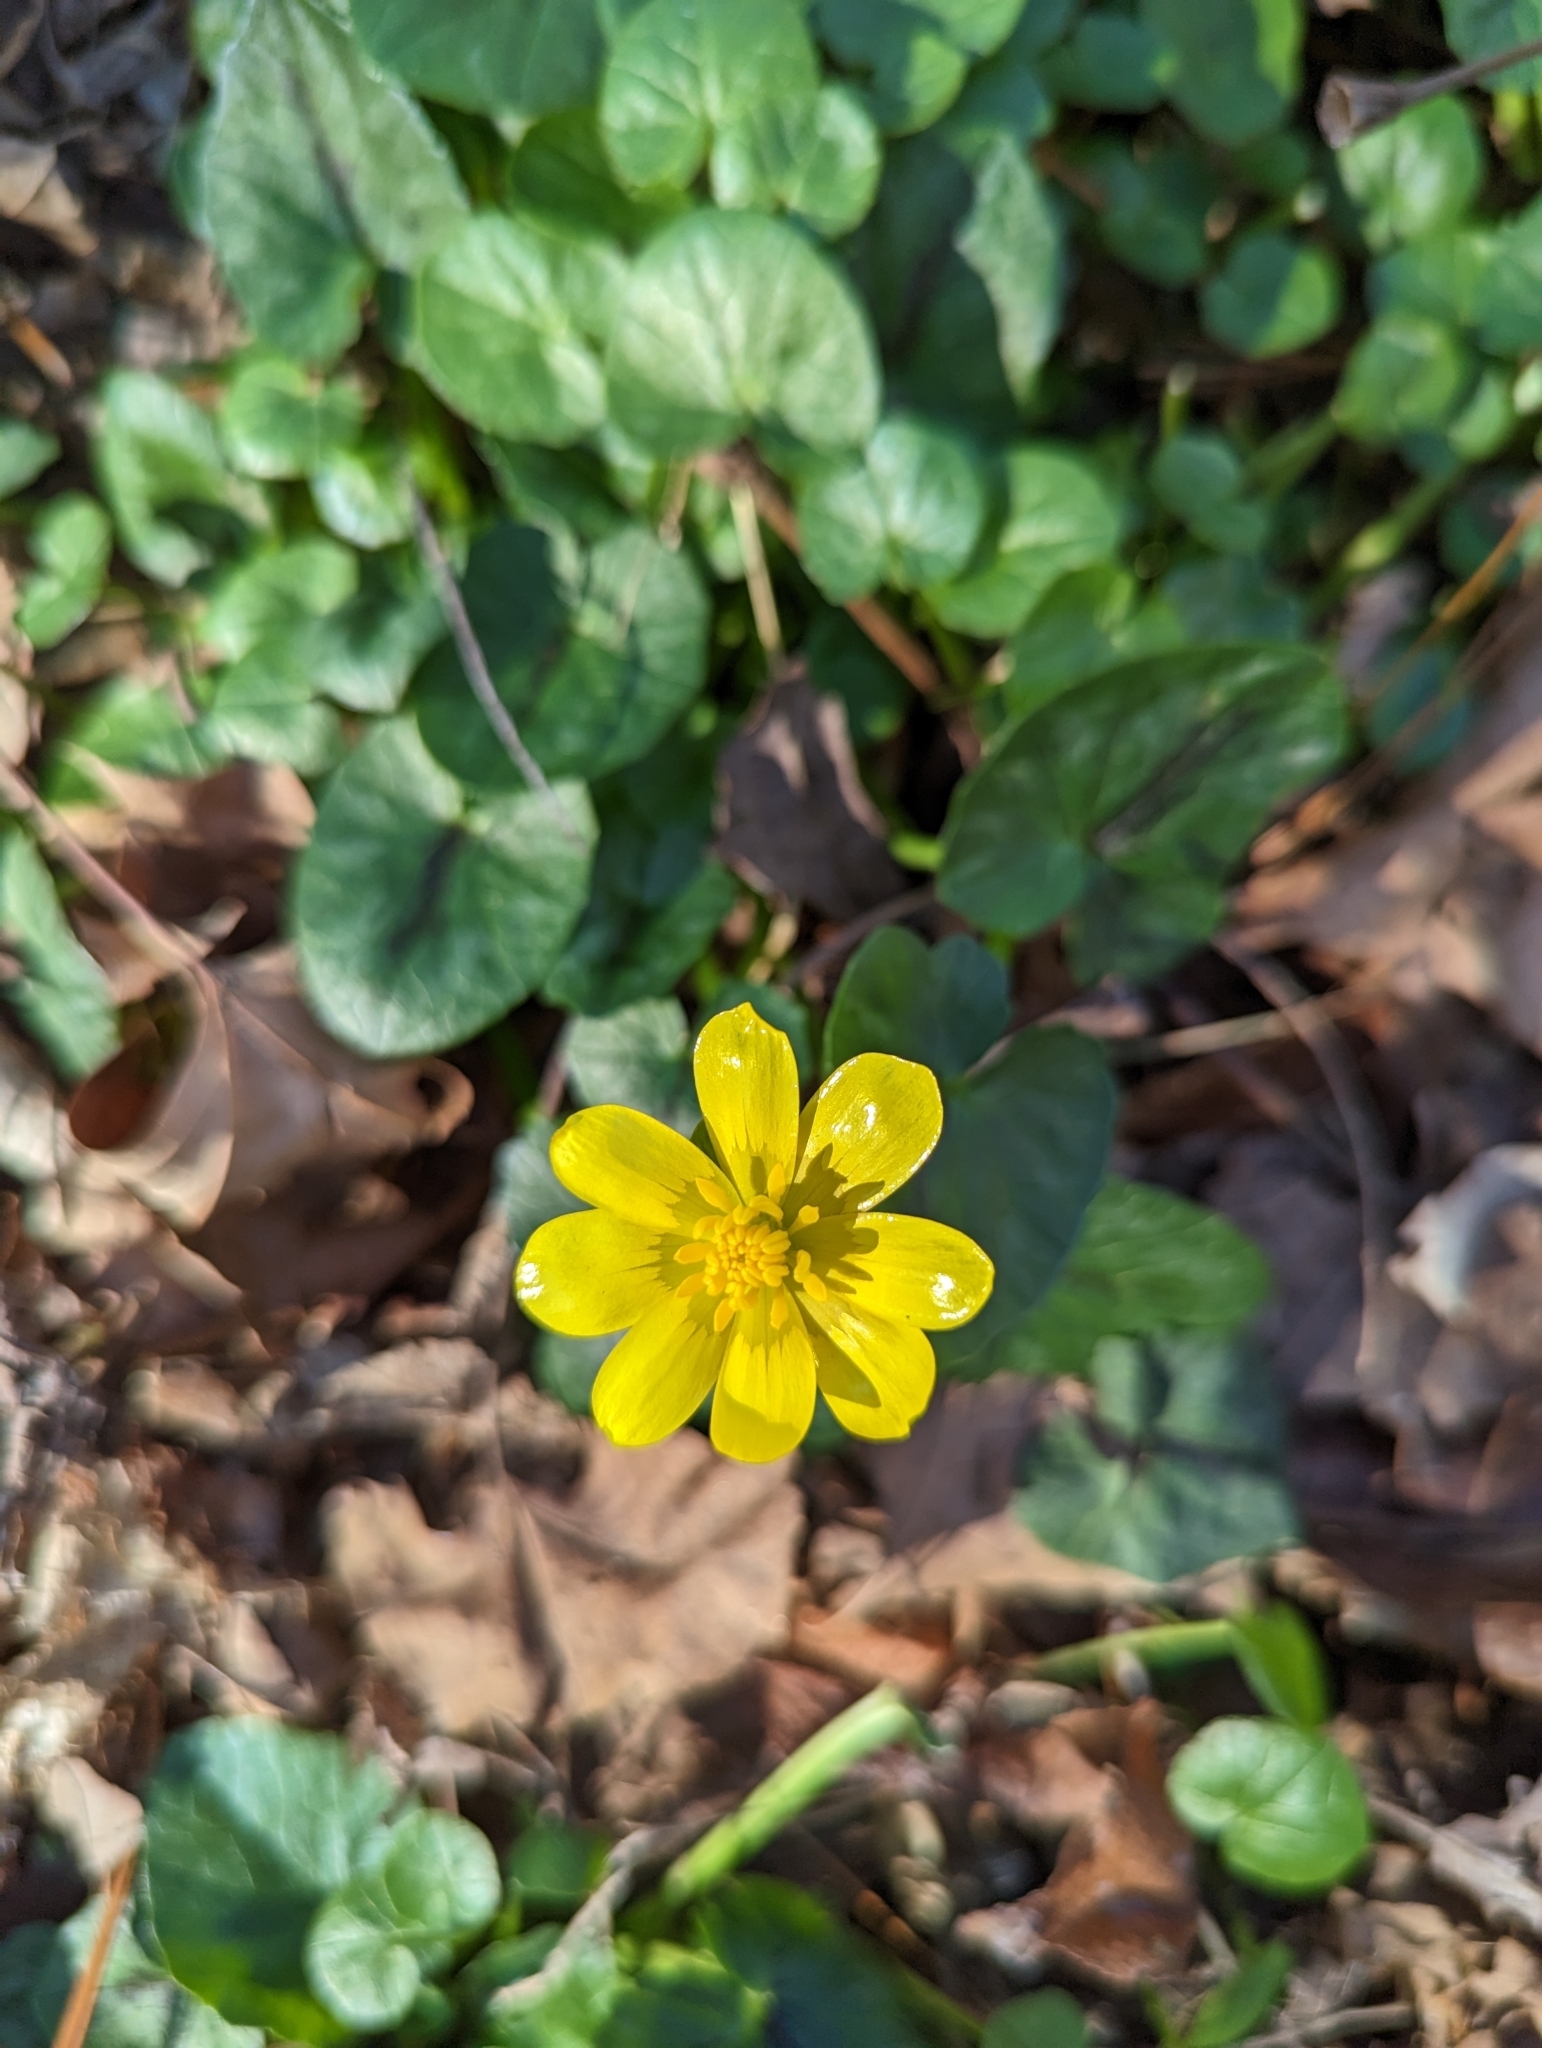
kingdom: Plantae
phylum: Tracheophyta
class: Magnoliopsida
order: Ranunculales
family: Ranunculaceae
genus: Ficaria
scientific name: Ficaria verna
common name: Lesser celandine
